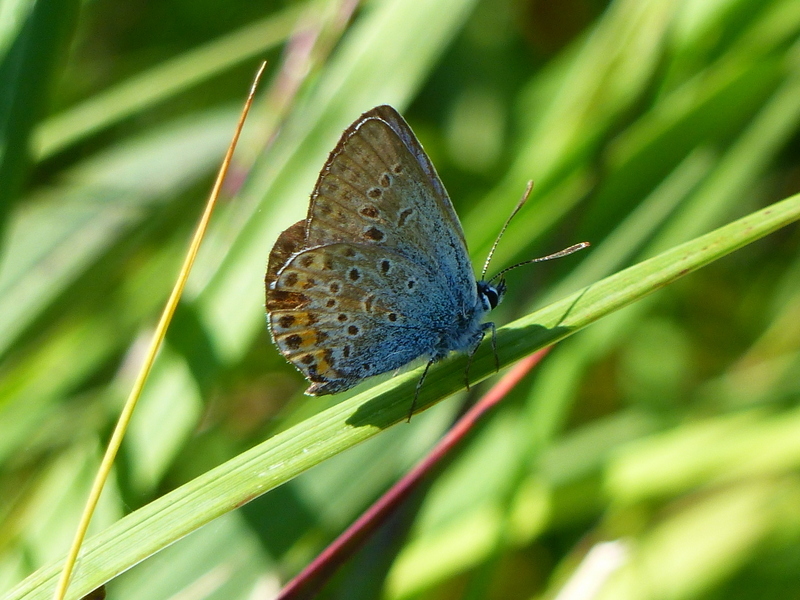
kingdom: Animalia
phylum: Arthropoda
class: Insecta
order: Lepidoptera
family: Lycaenidae
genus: Plebejus
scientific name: Plebejus argus
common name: Silver-studded blue
